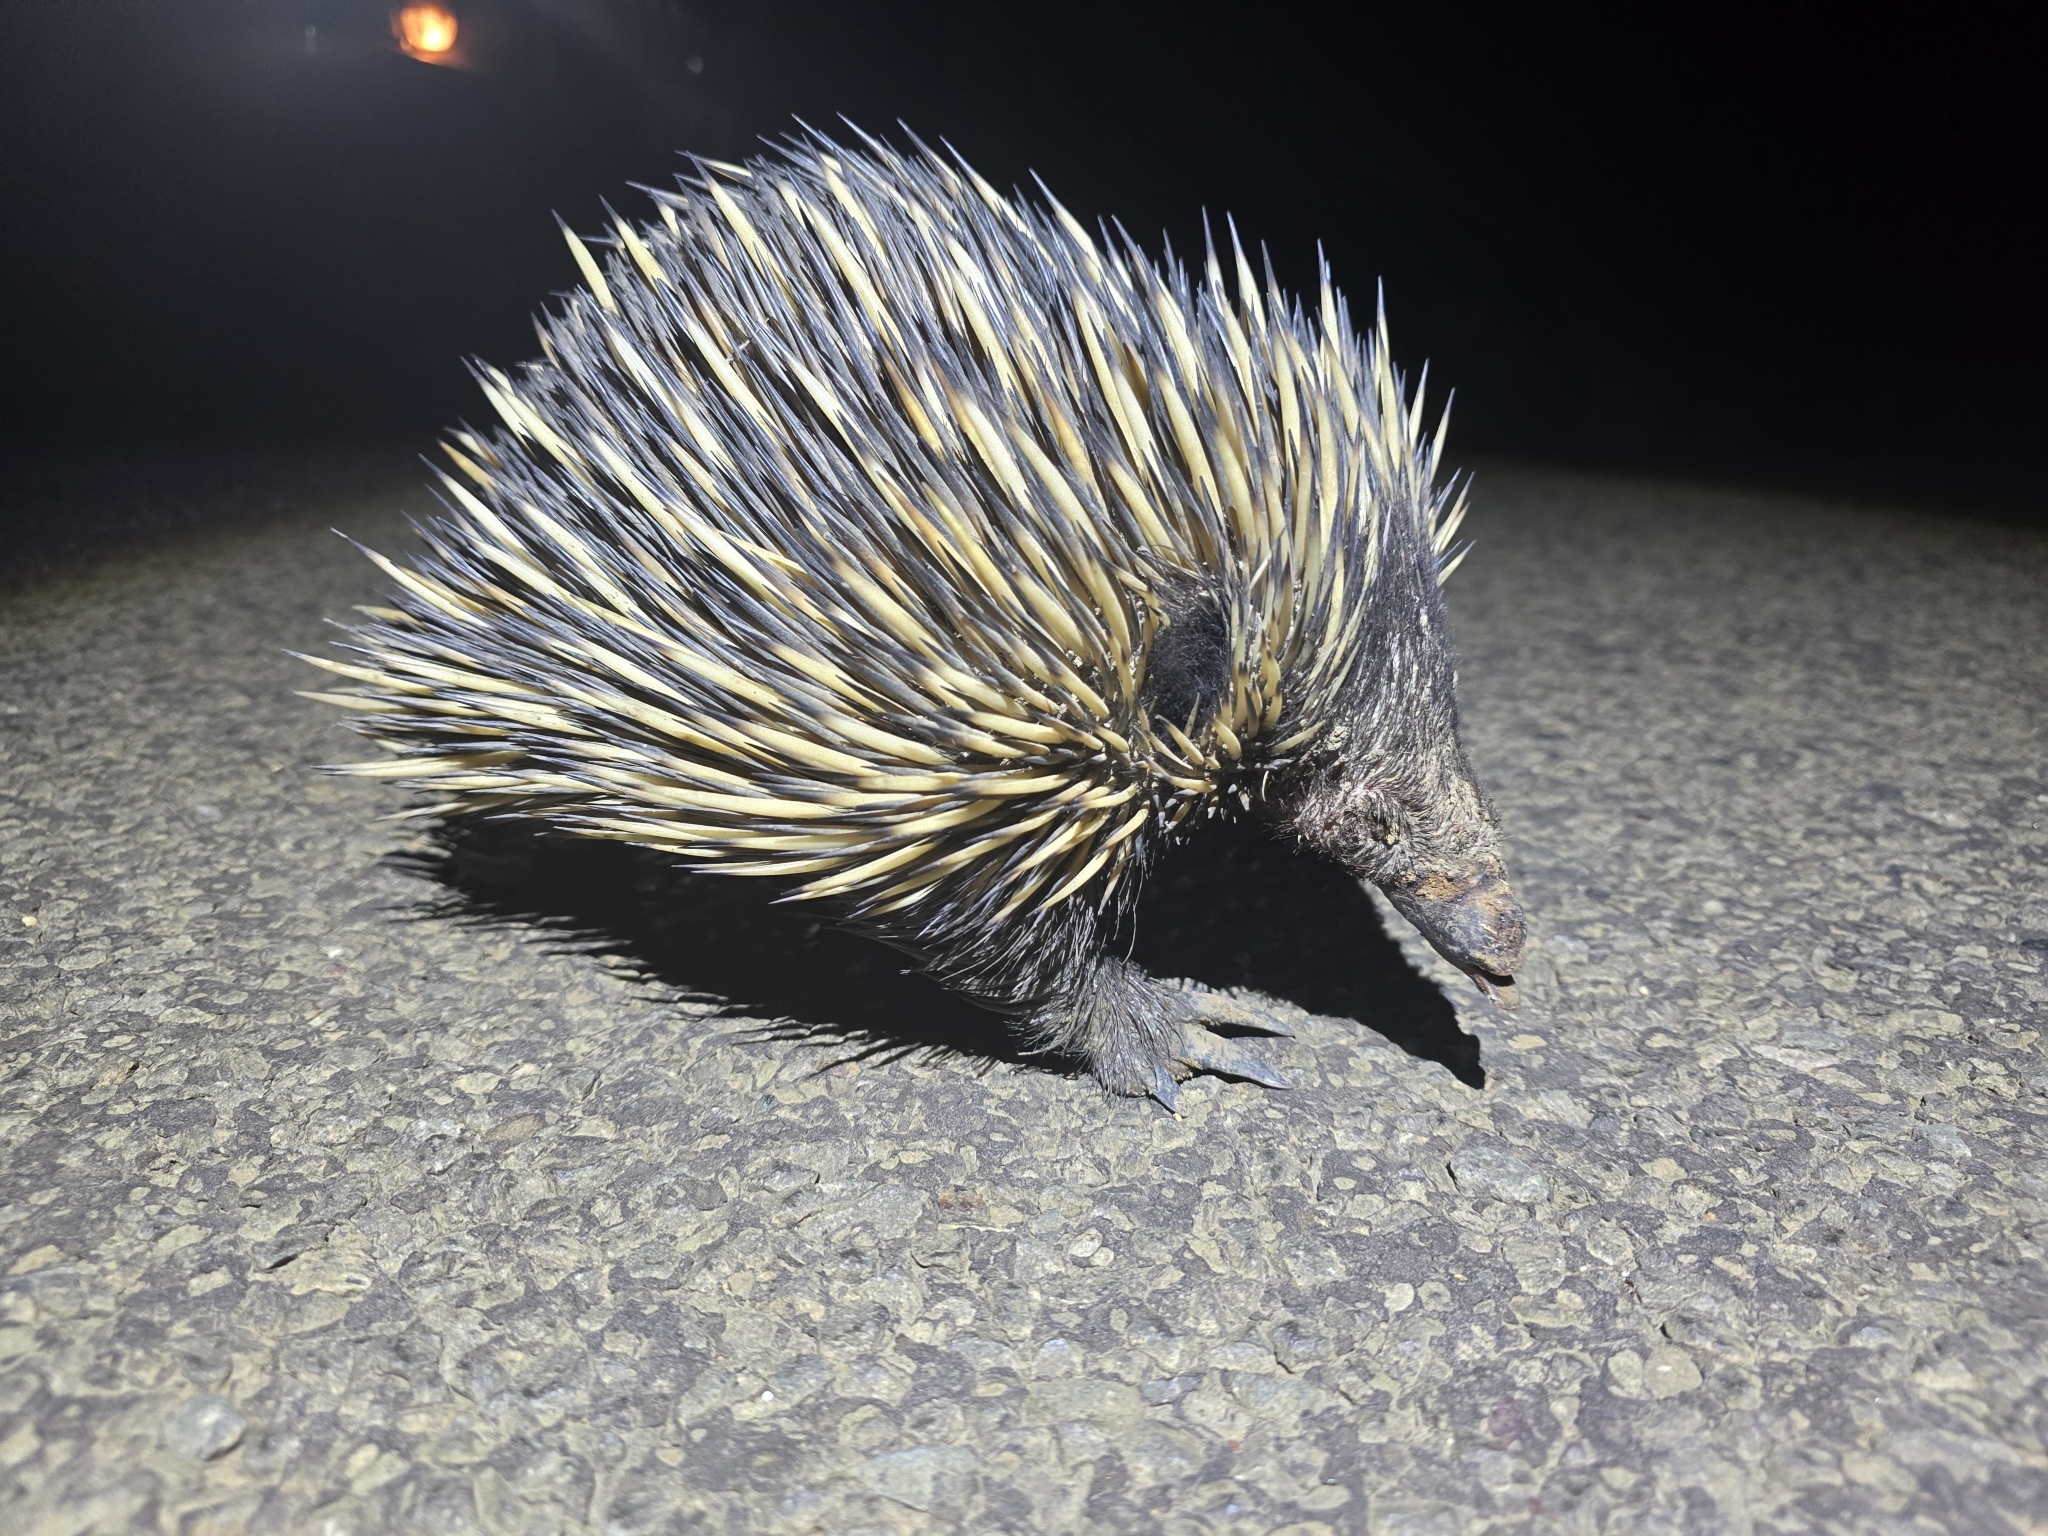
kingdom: Animalia
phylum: Chordata
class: Mammalia
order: Monotremata
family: Tachyglossidae
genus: Tachyglossus
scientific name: Tachyglossus aculeatus
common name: Short-beaked echidna
